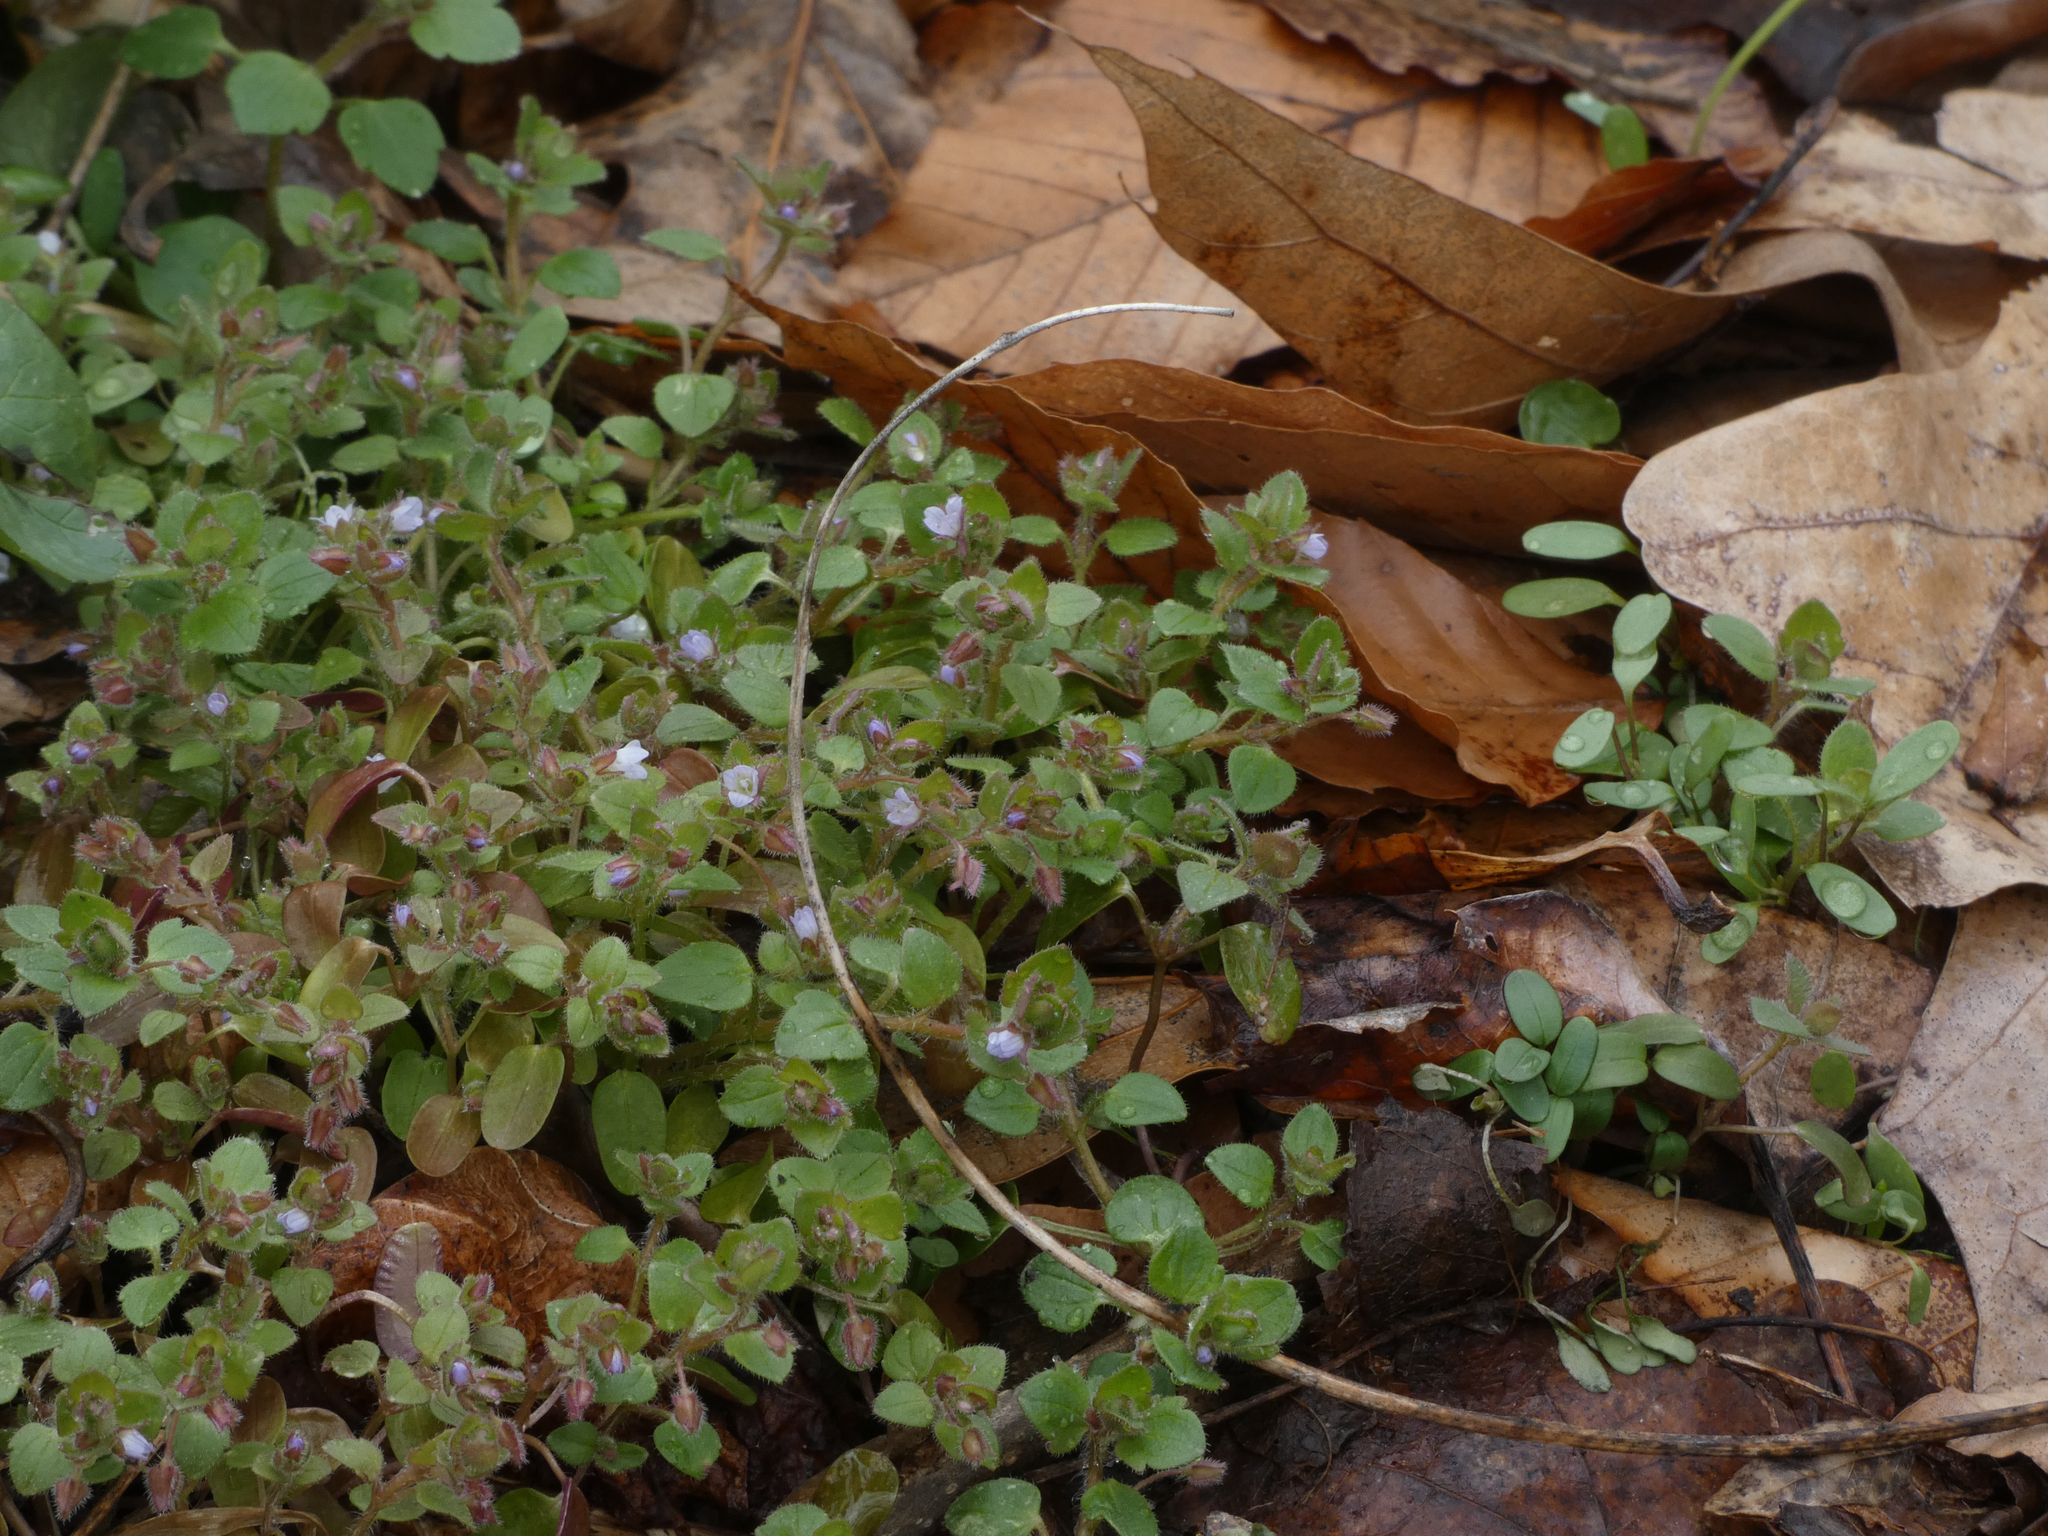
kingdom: Plantae
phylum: Tracheophyta
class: Magnoliopsida
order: Lamiales
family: Plantaginaceae
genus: Veronica
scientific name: Veronica sublobata
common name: False ivy-leaved speedwell
